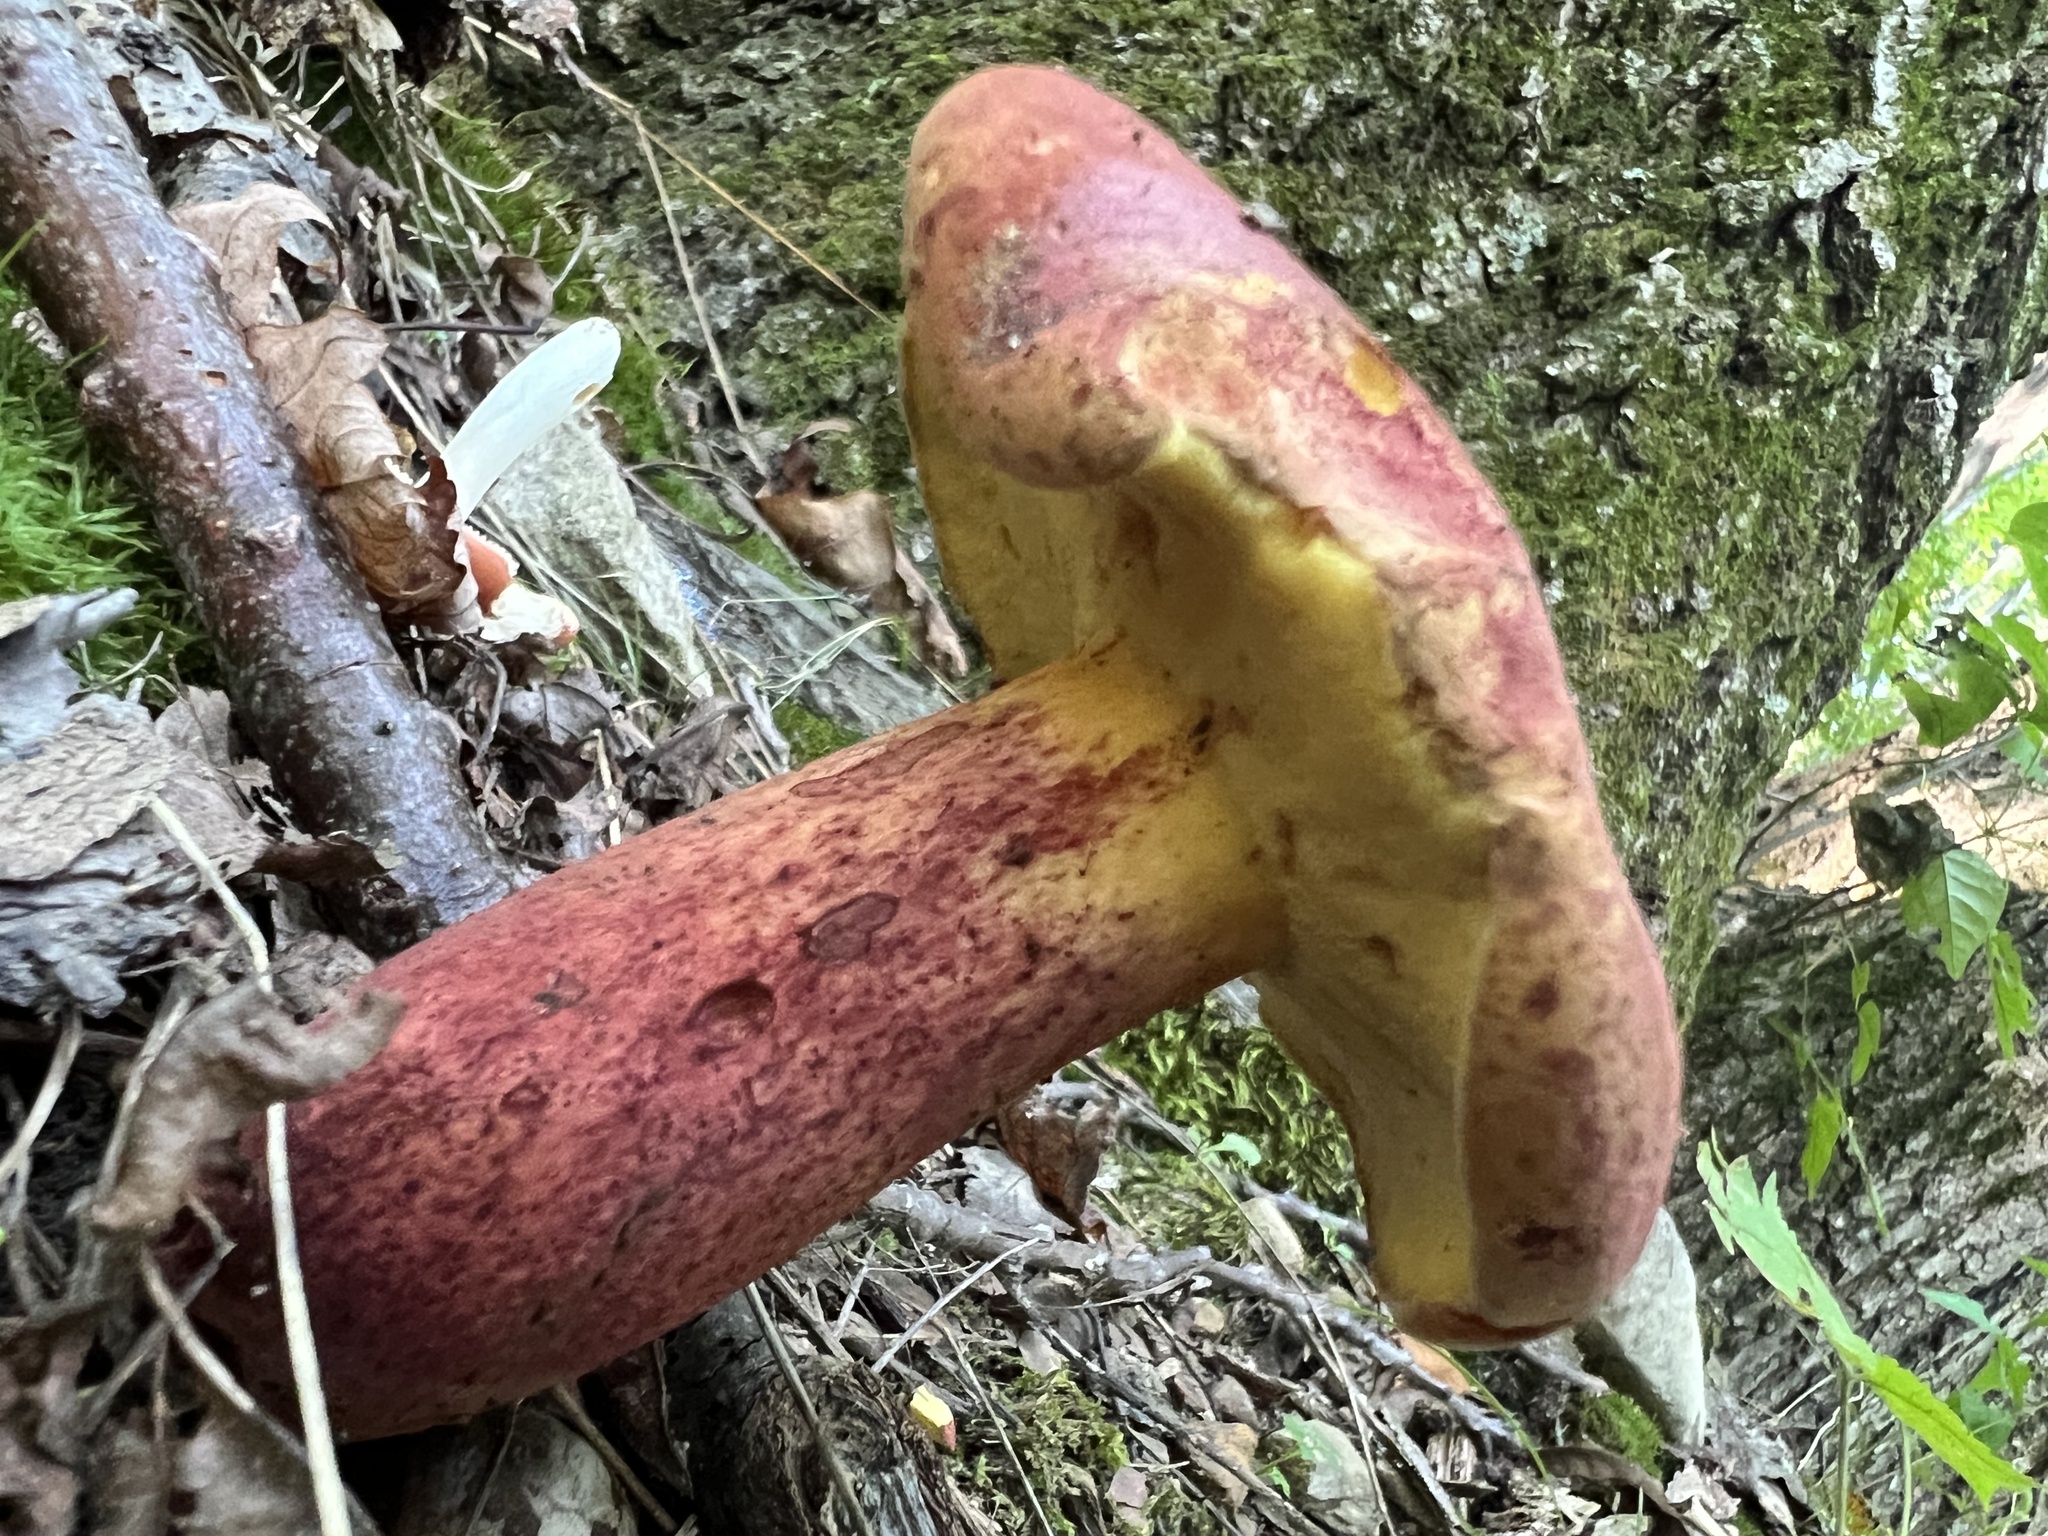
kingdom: Fungi
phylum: Basidiomycota
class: Agaricomycetes
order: Boletales
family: Boletaceae
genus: Baorangia
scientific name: Baorangia bicolor
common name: Two-colored bolete
